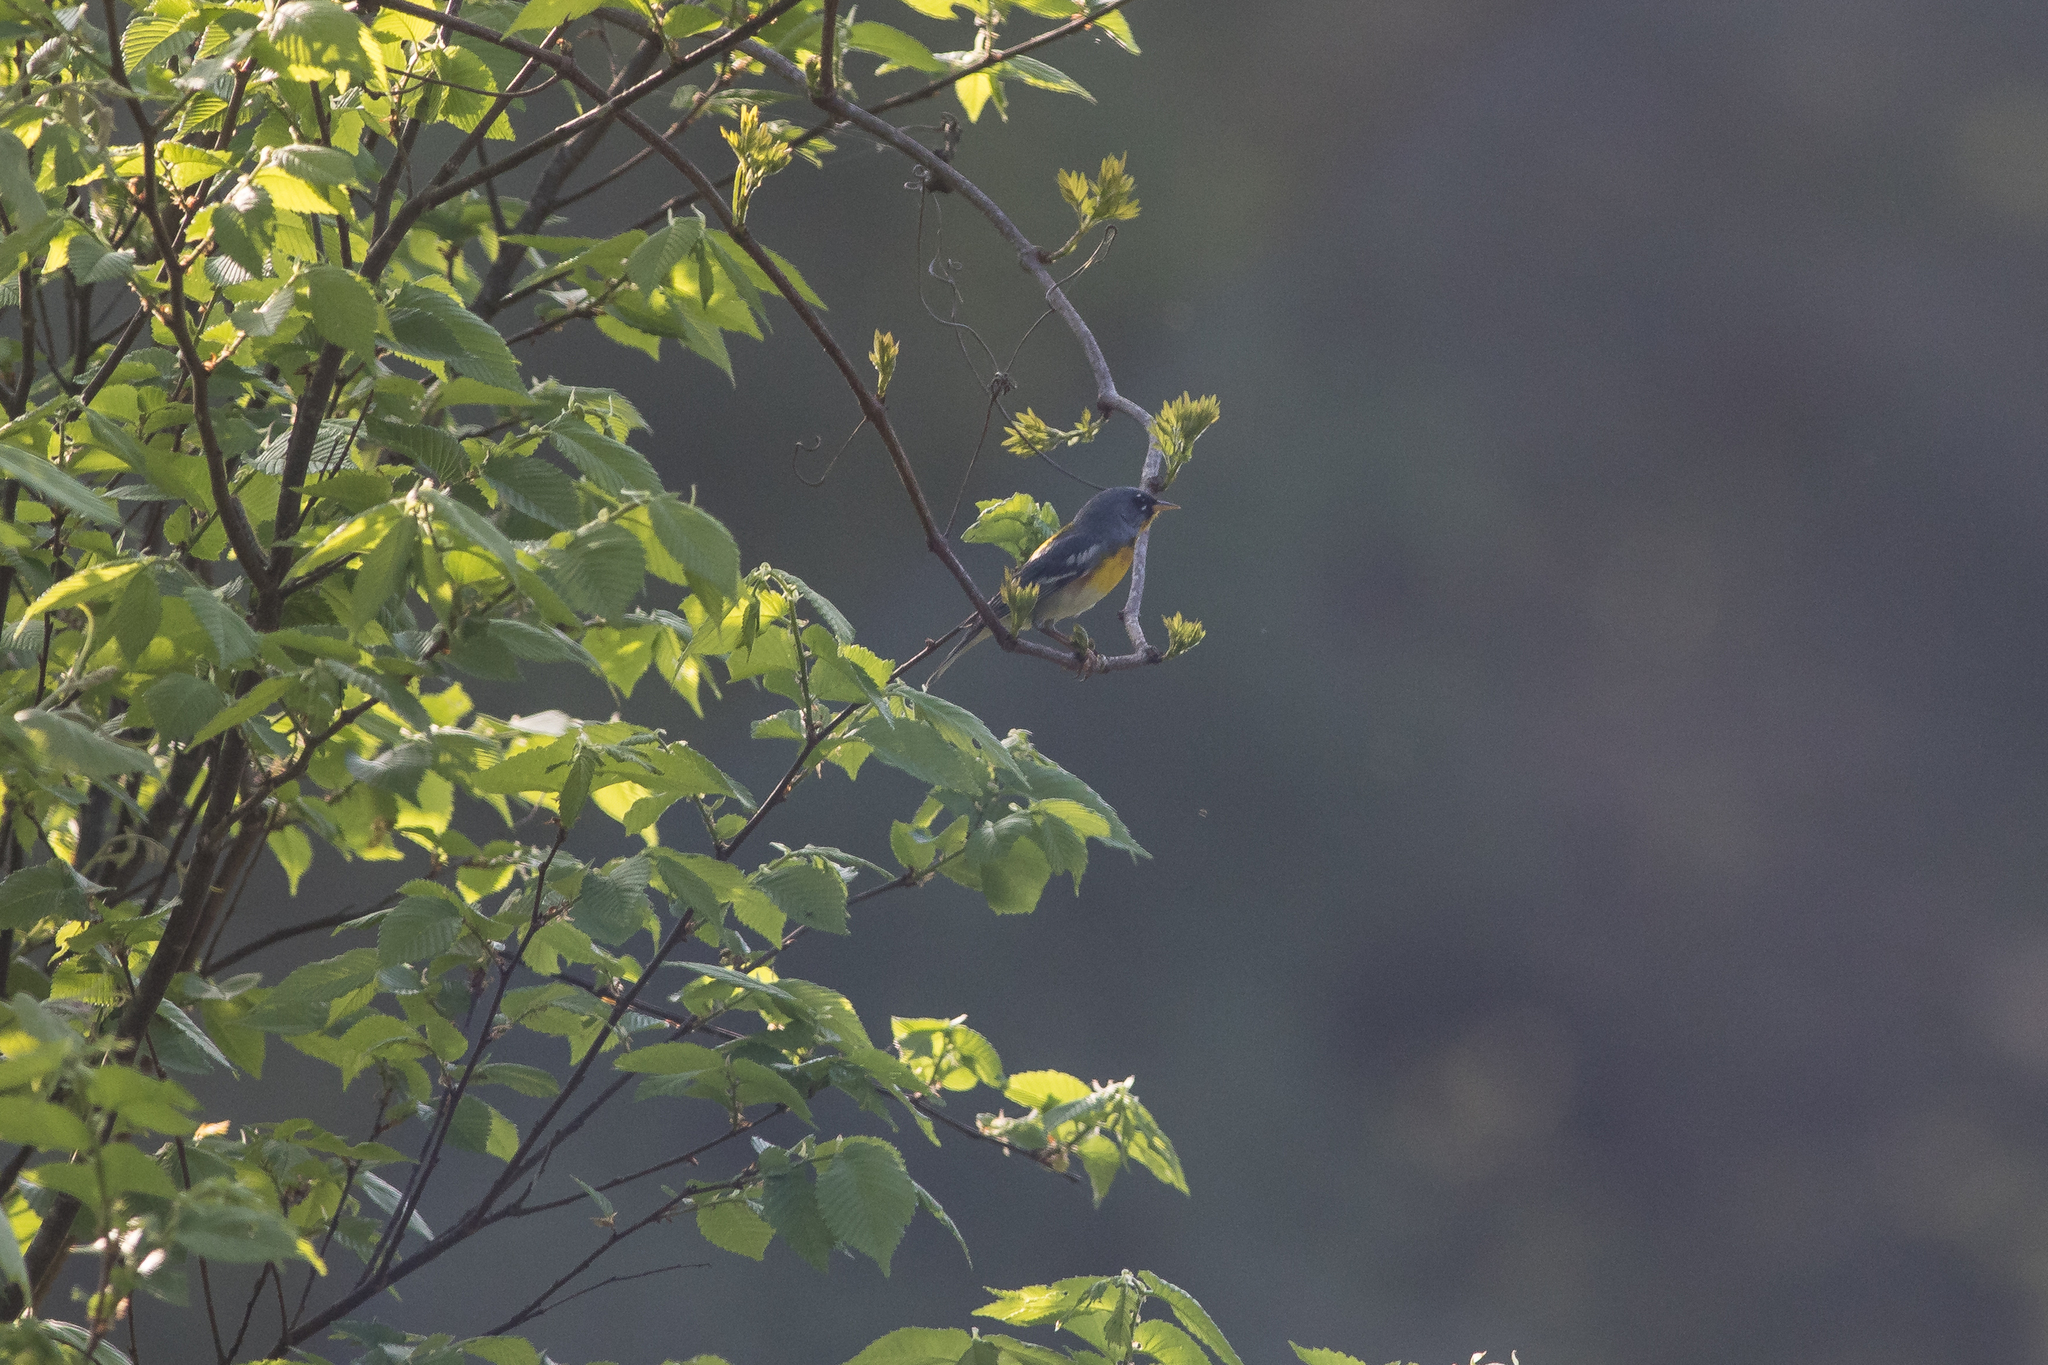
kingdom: Animalia
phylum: Chordata
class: Aves
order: Passeriformes
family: Parulidae
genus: Setophaga
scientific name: Setophaga americana
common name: Northern parula
